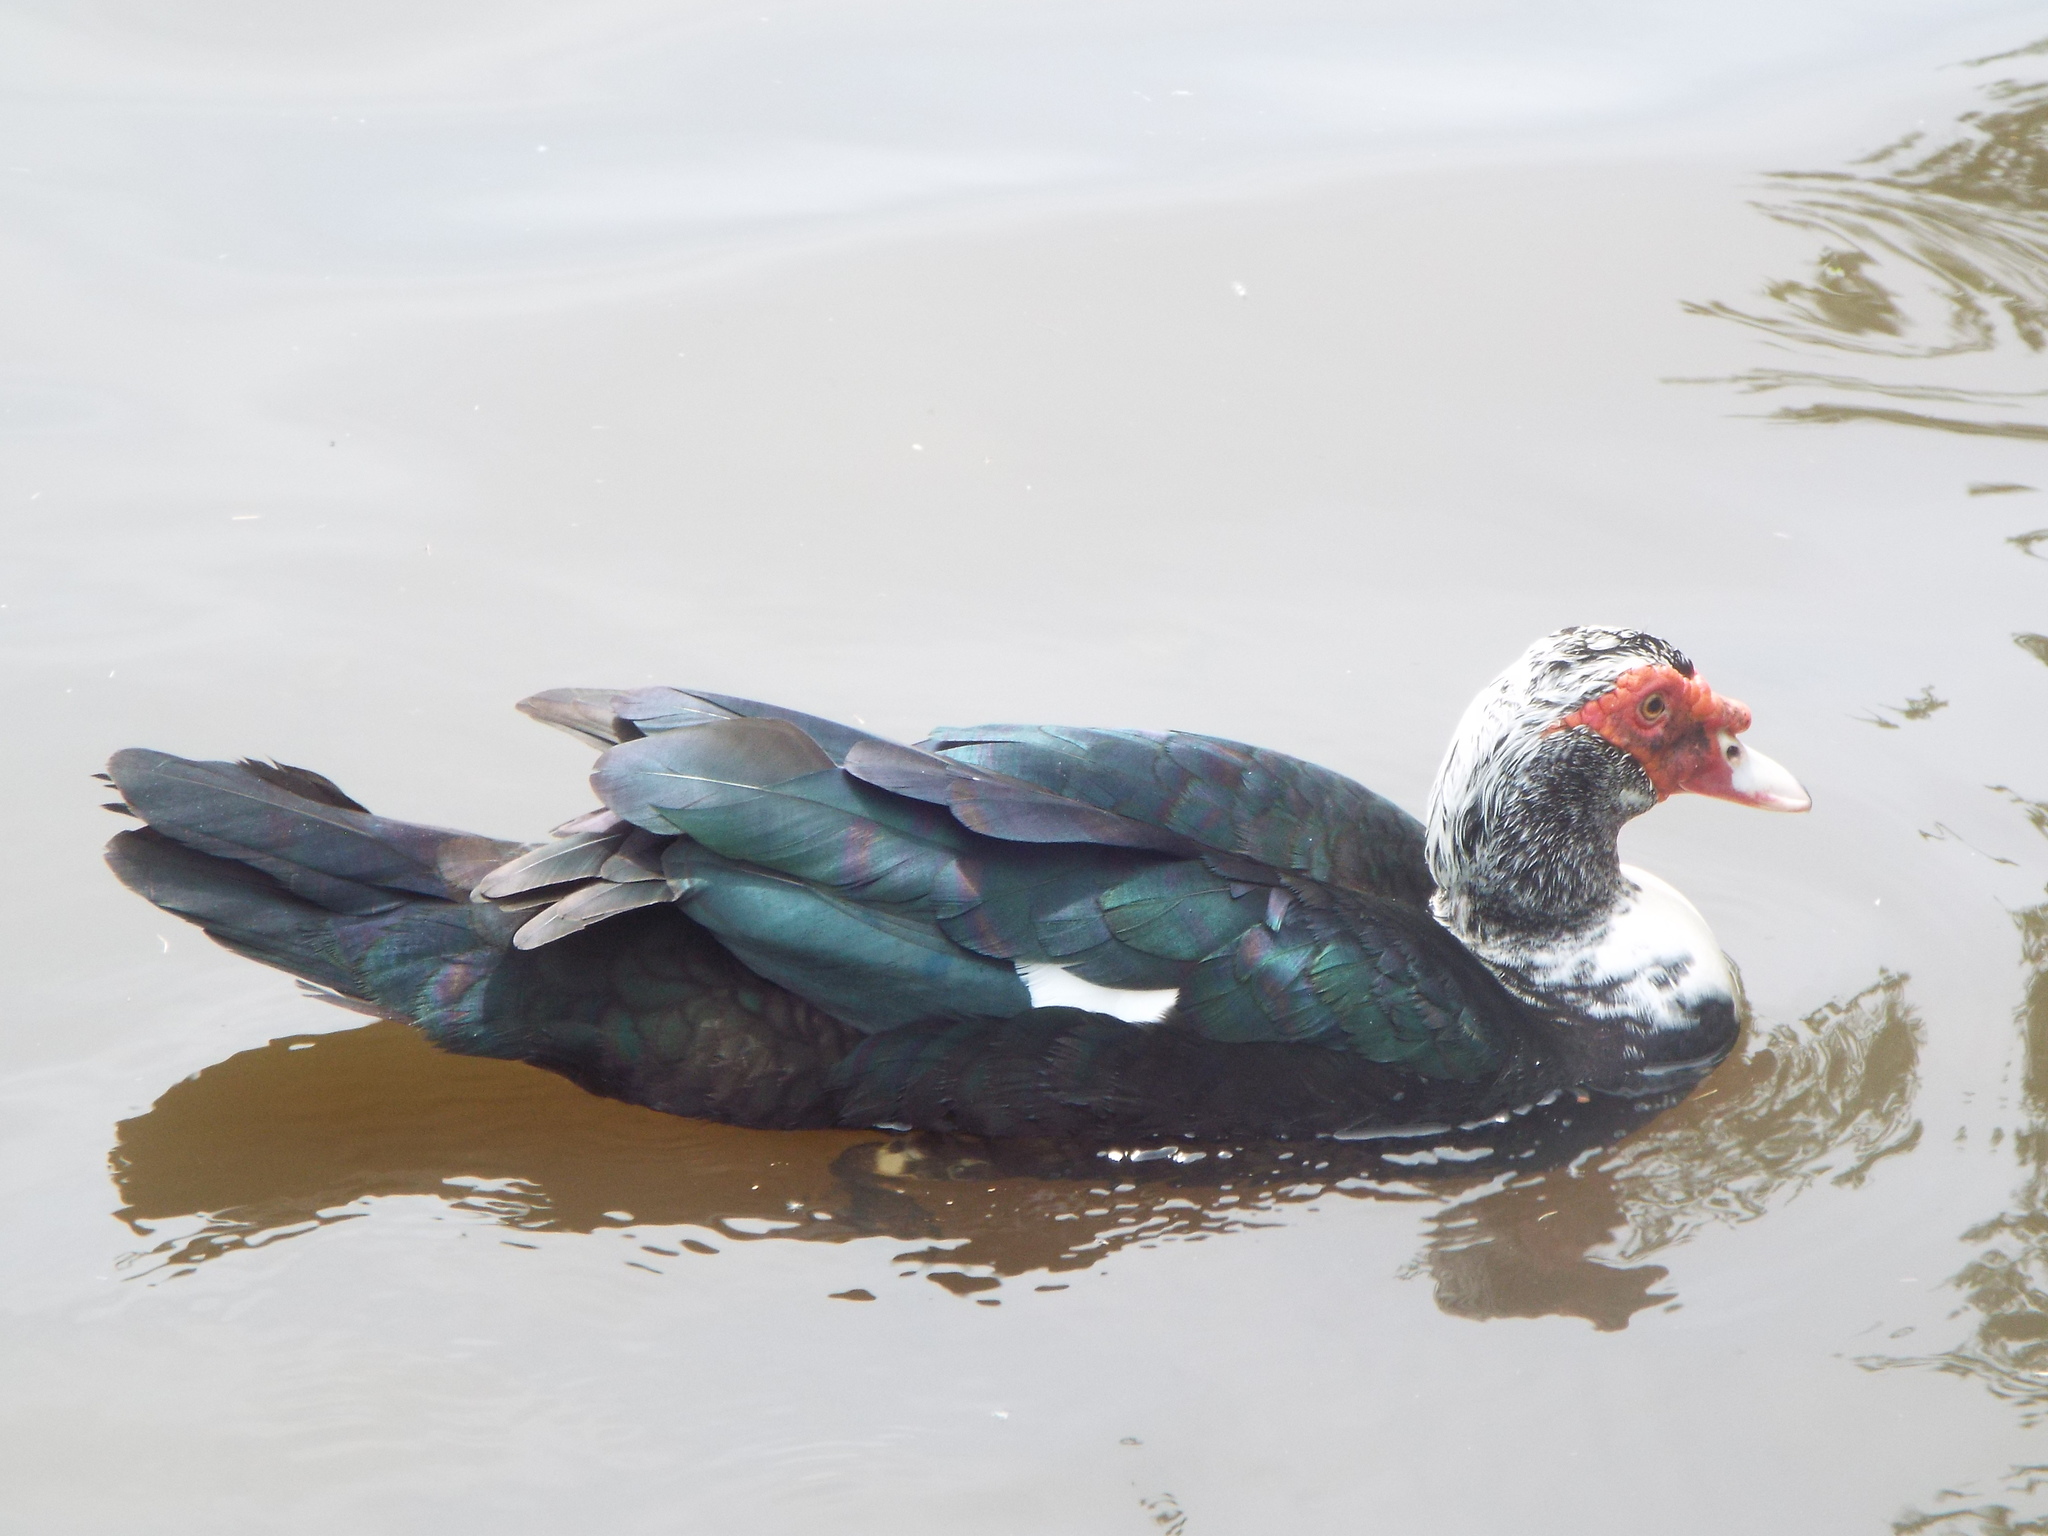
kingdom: Animalia
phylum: Chordata
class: Aves
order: Anseriformes
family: Anatidae
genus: Cairina
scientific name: Cairina moschata
